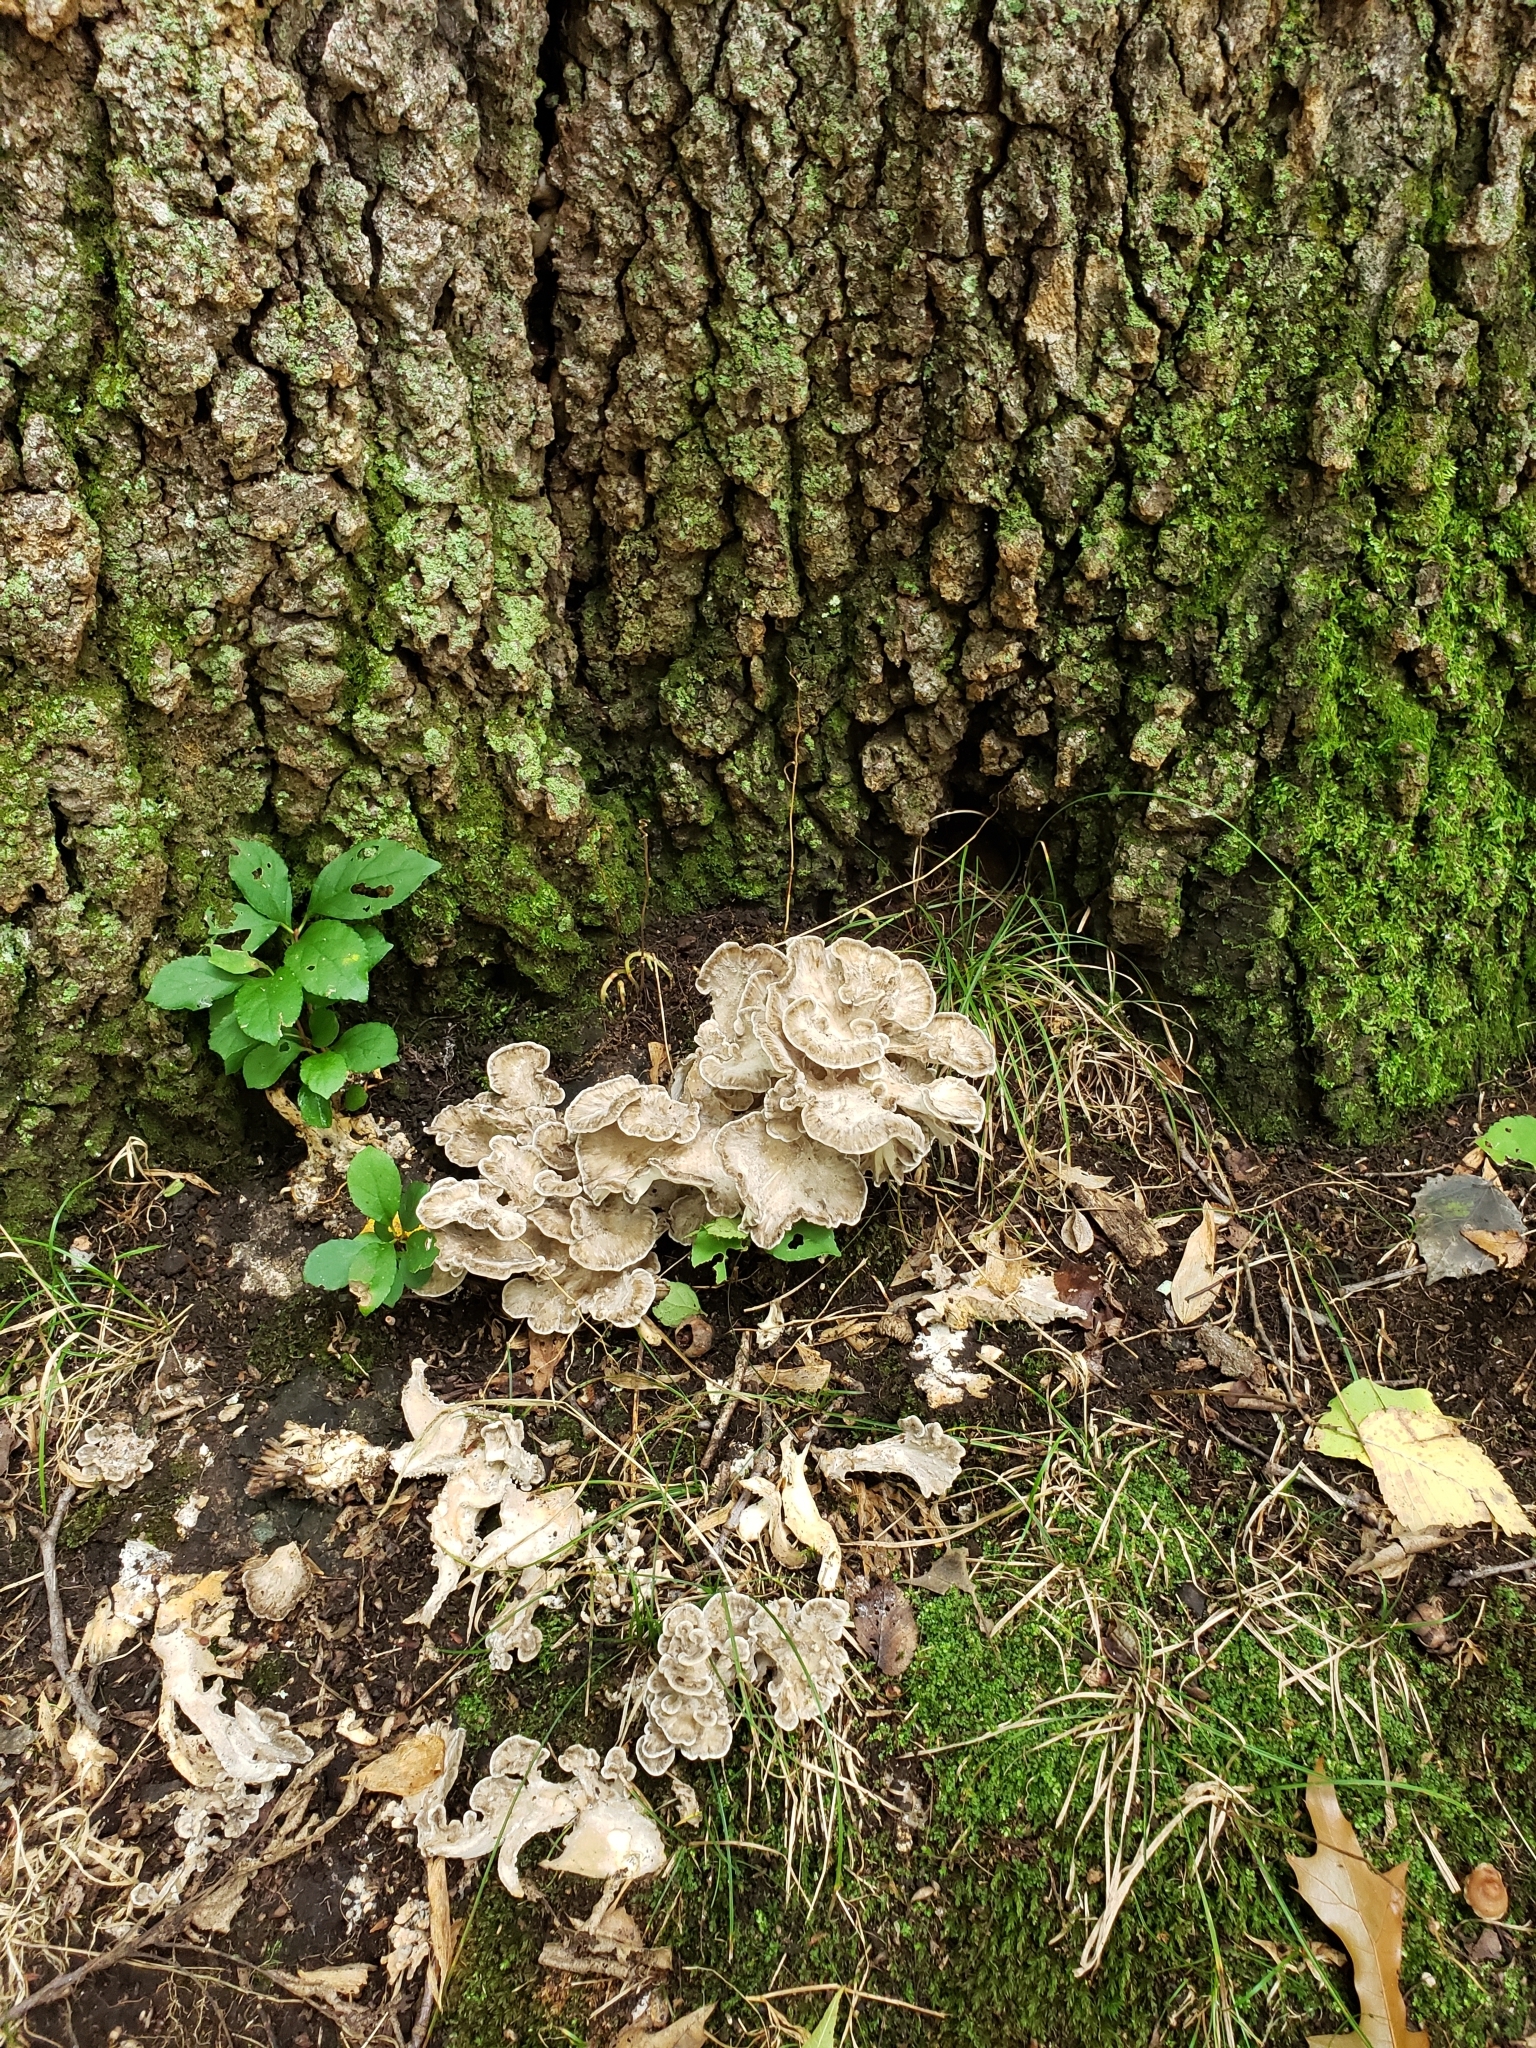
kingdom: Fungi
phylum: Basidiomycota
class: Agaricomycetes
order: Polyporales
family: Grifolaceae
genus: Grifola
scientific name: Grifola frondosa
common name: Hen of the woods
